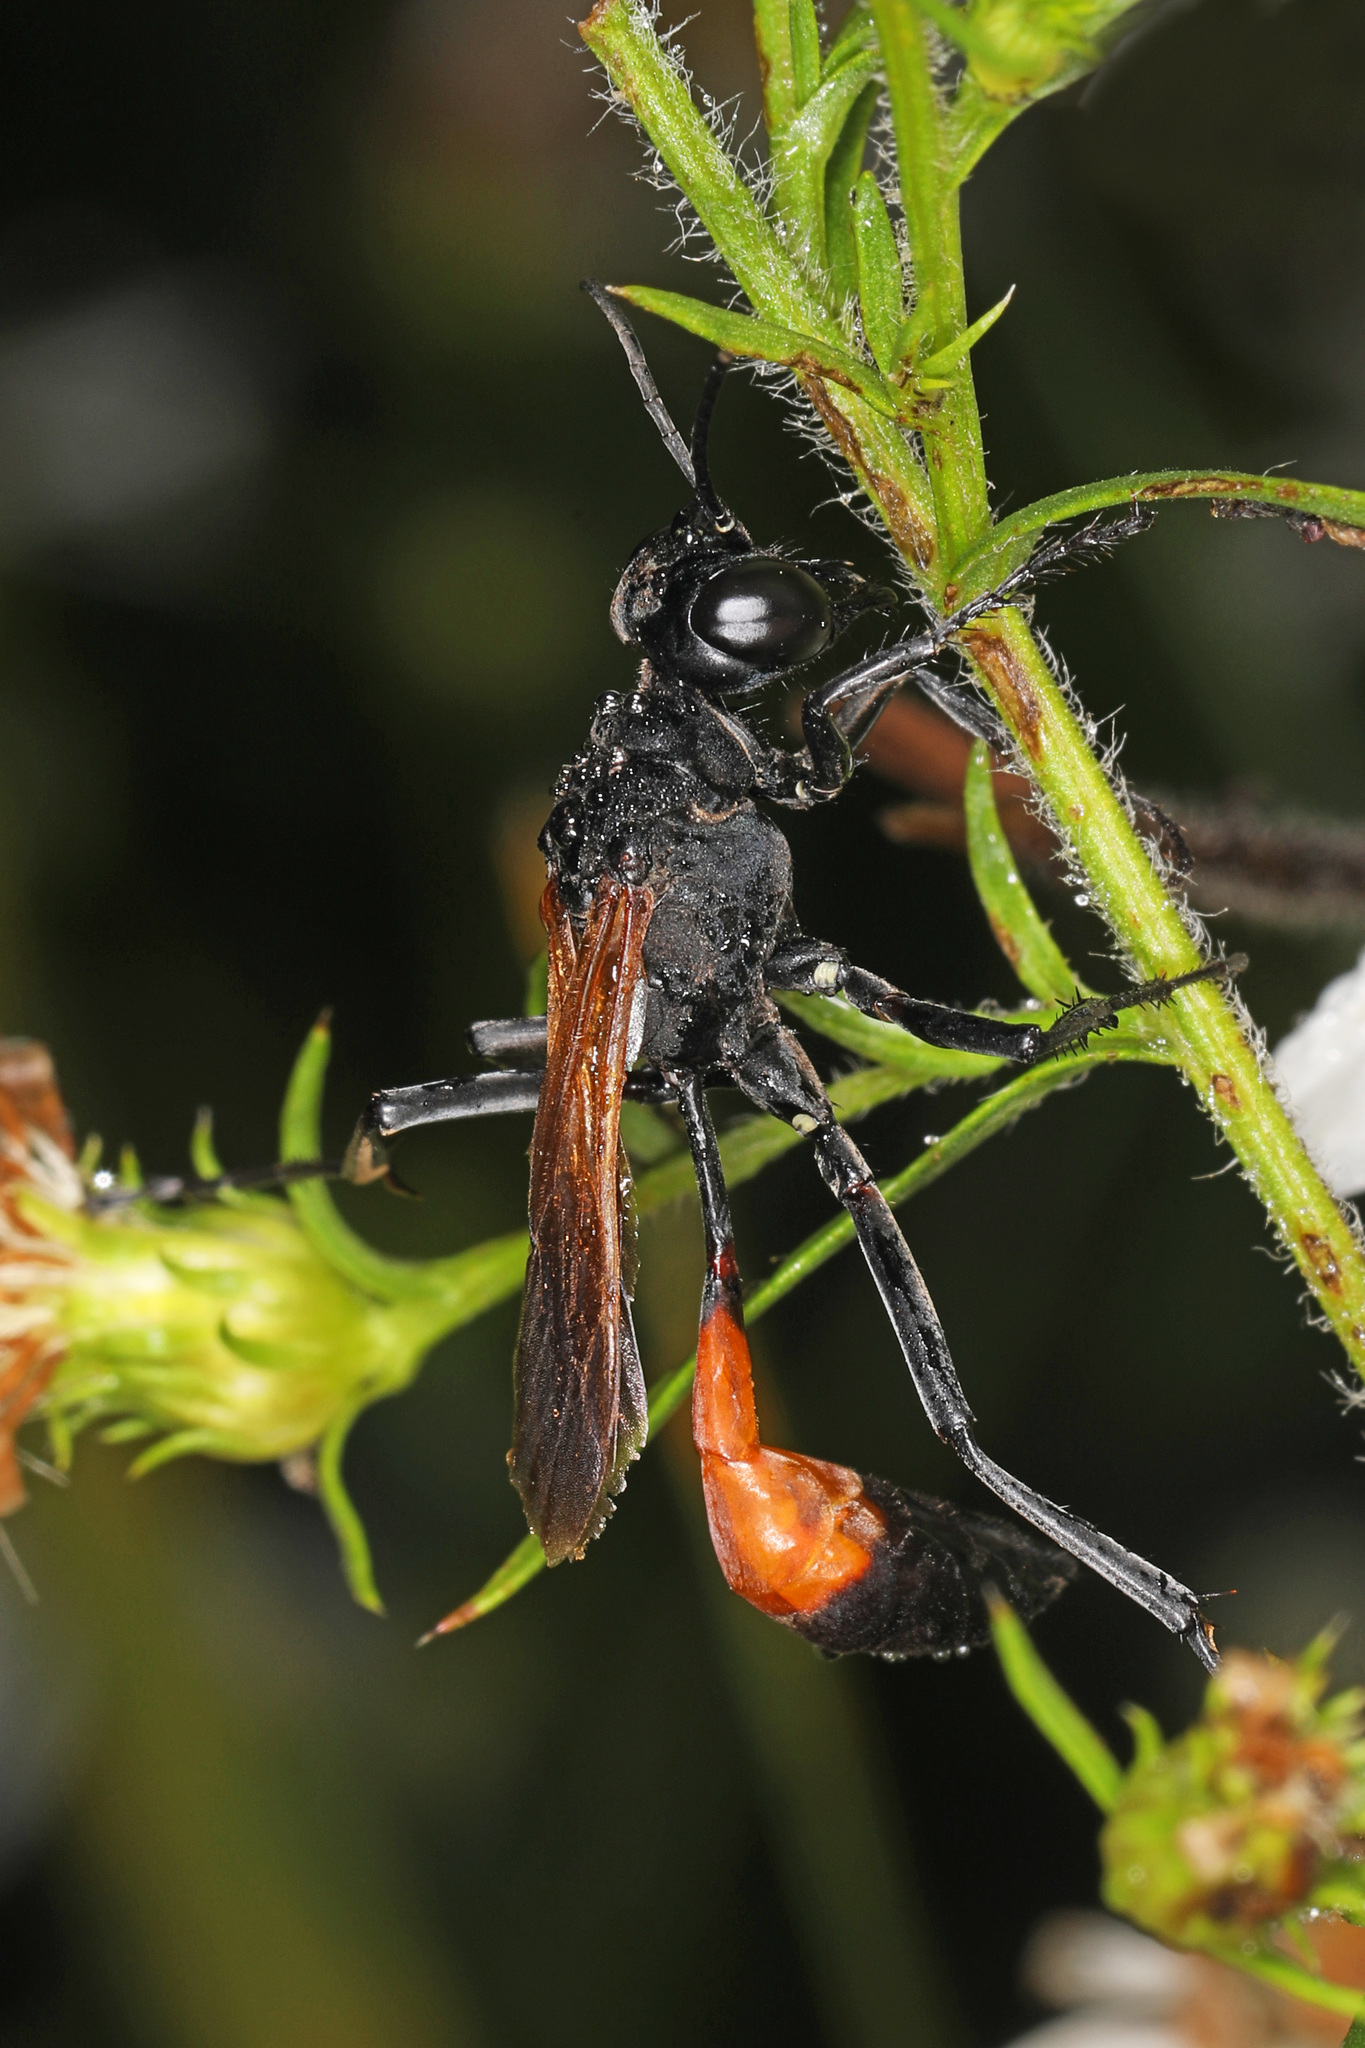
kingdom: Animalia
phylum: Arthropoda
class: Insecta
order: Hymenoptera
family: Sphecidae
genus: Ammophila
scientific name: Ammophila pictipennis
